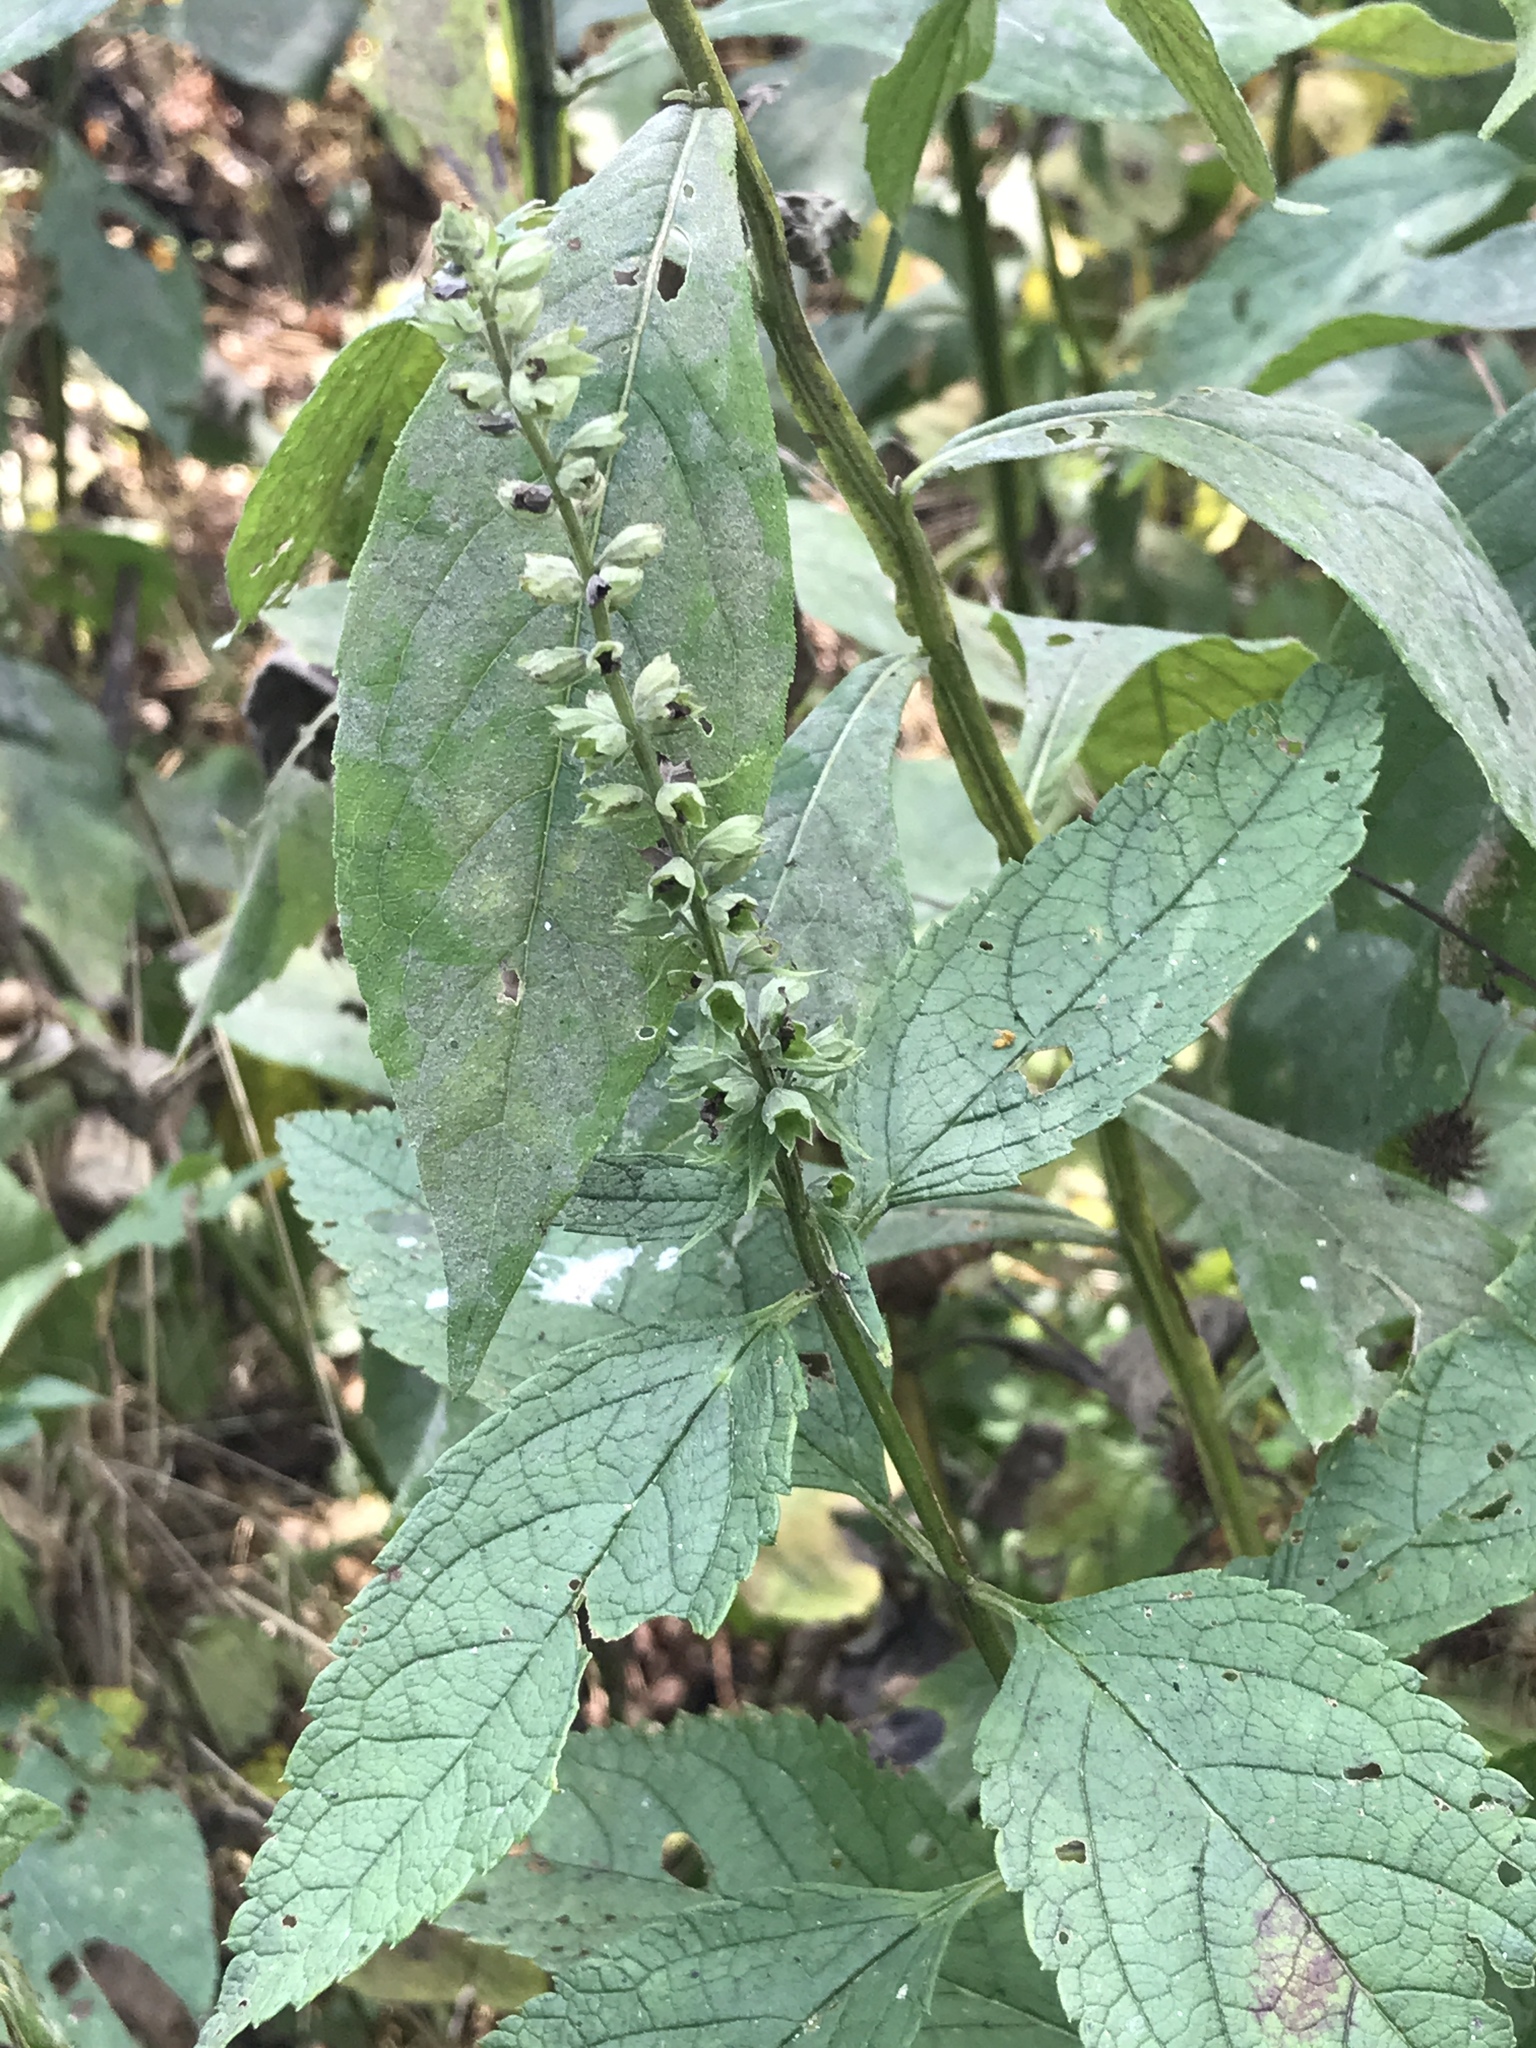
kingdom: Plantae
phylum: Tracheophyta
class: Magnoliopsida
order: Lamiales
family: Lamiaceae
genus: Teucrium
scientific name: Teucrium canadense
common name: American germander
